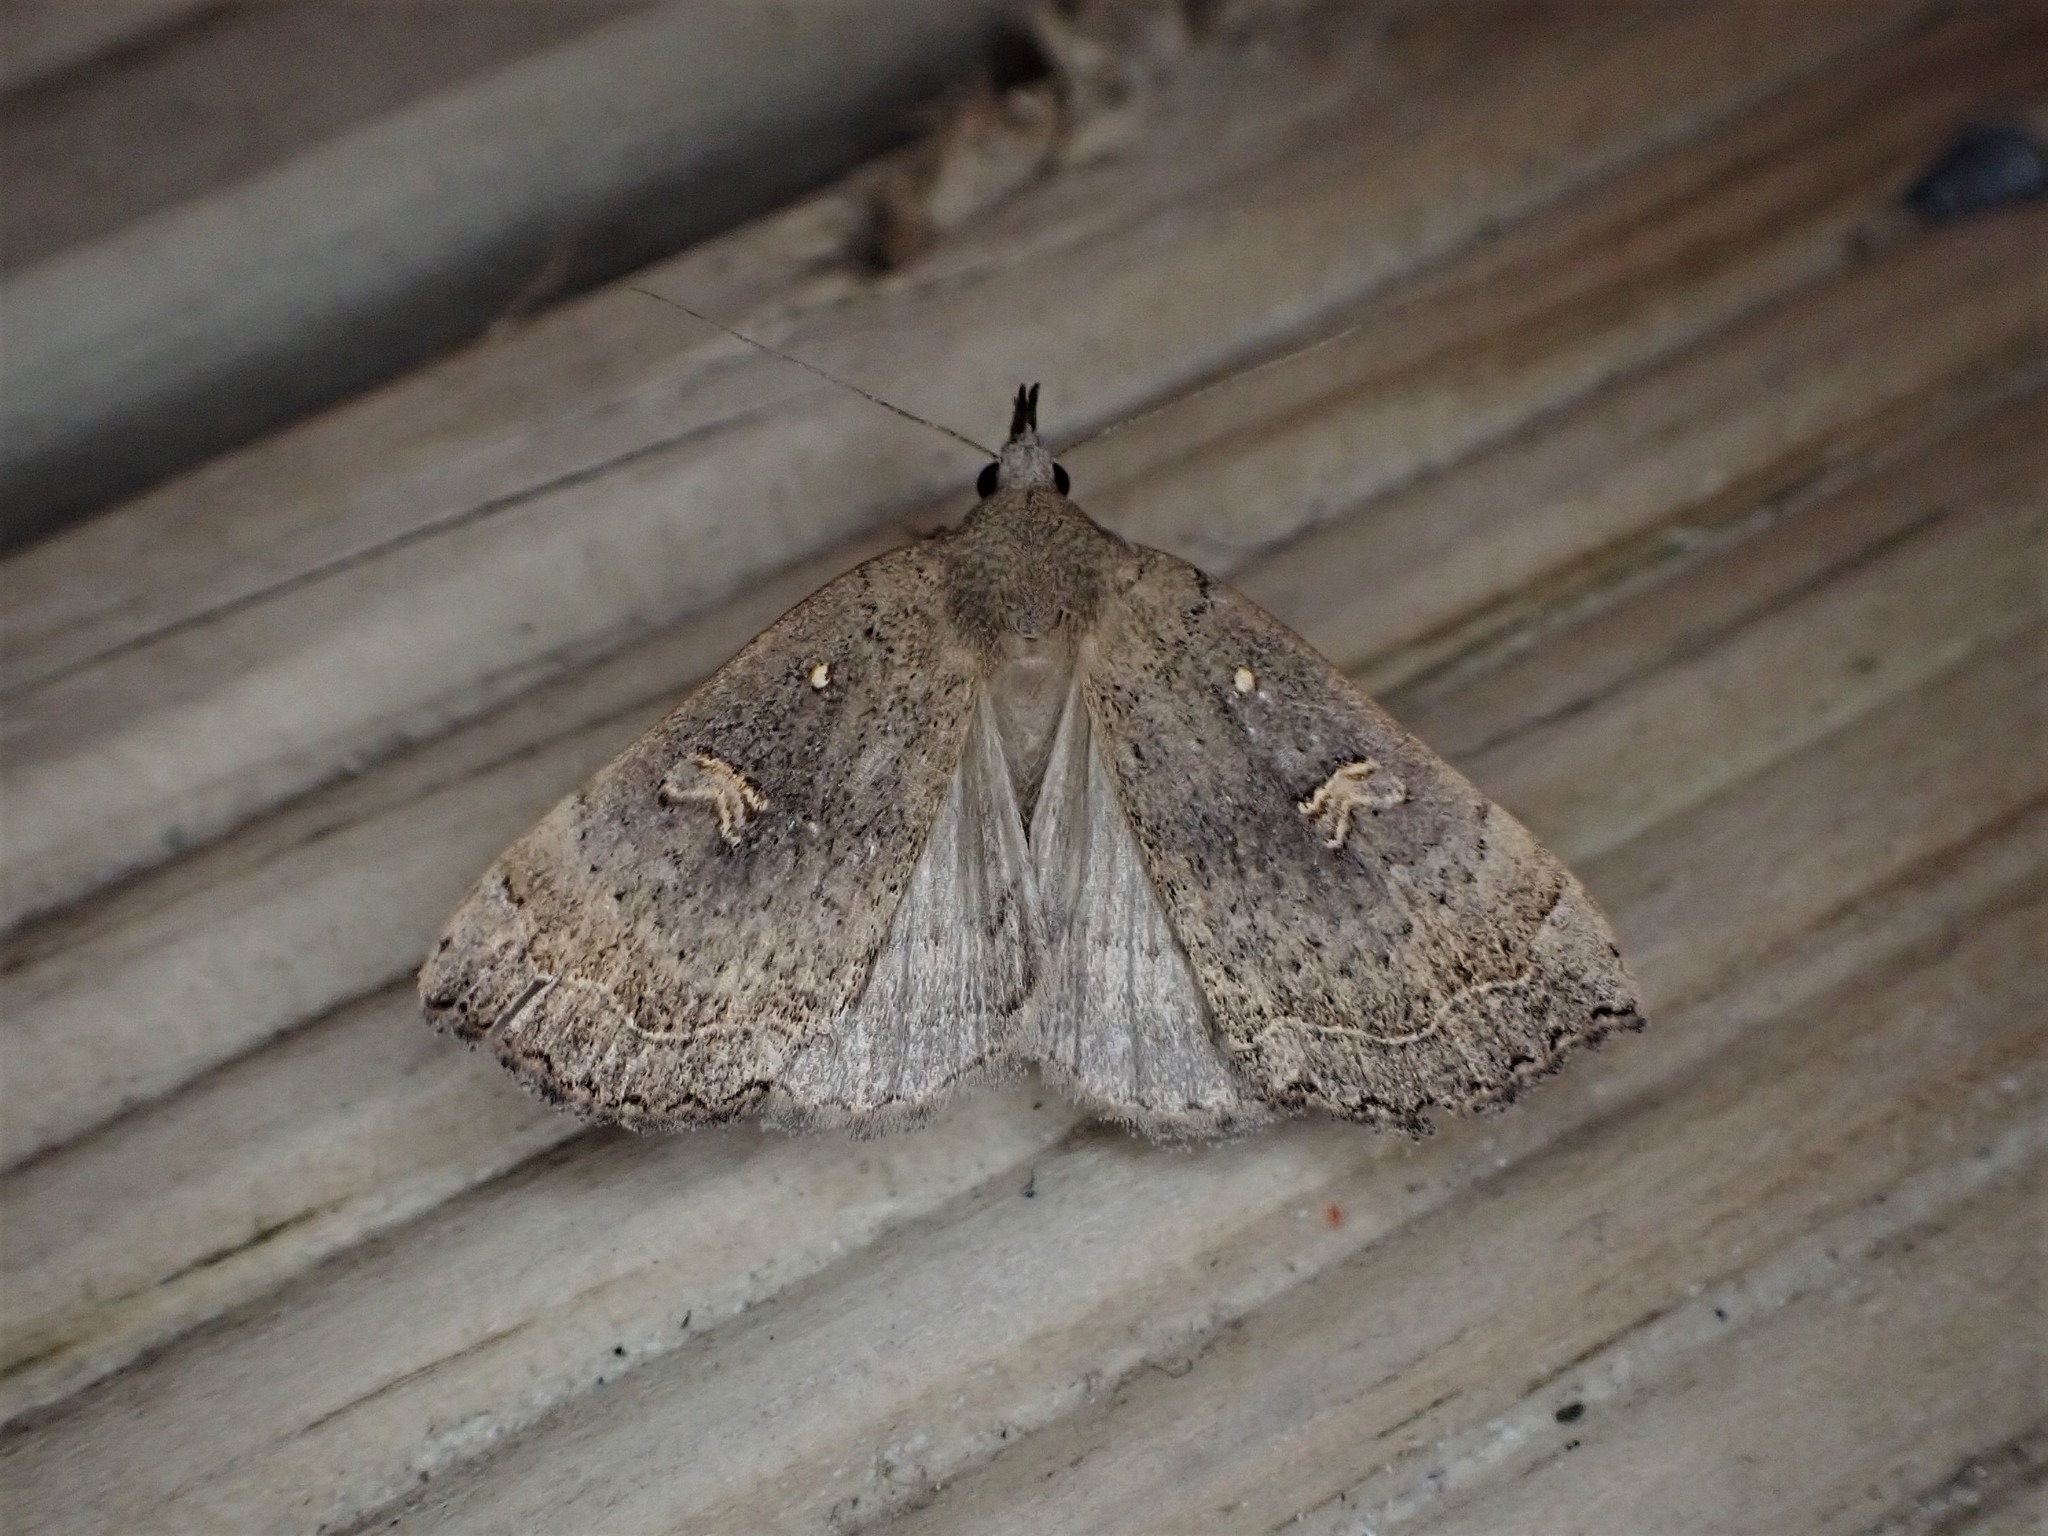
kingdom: Animalia
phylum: Arthropoda
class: Insecta
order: Lepidoptera
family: Erebidae
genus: Rhapsa
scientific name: Rhapsa scotosialis
